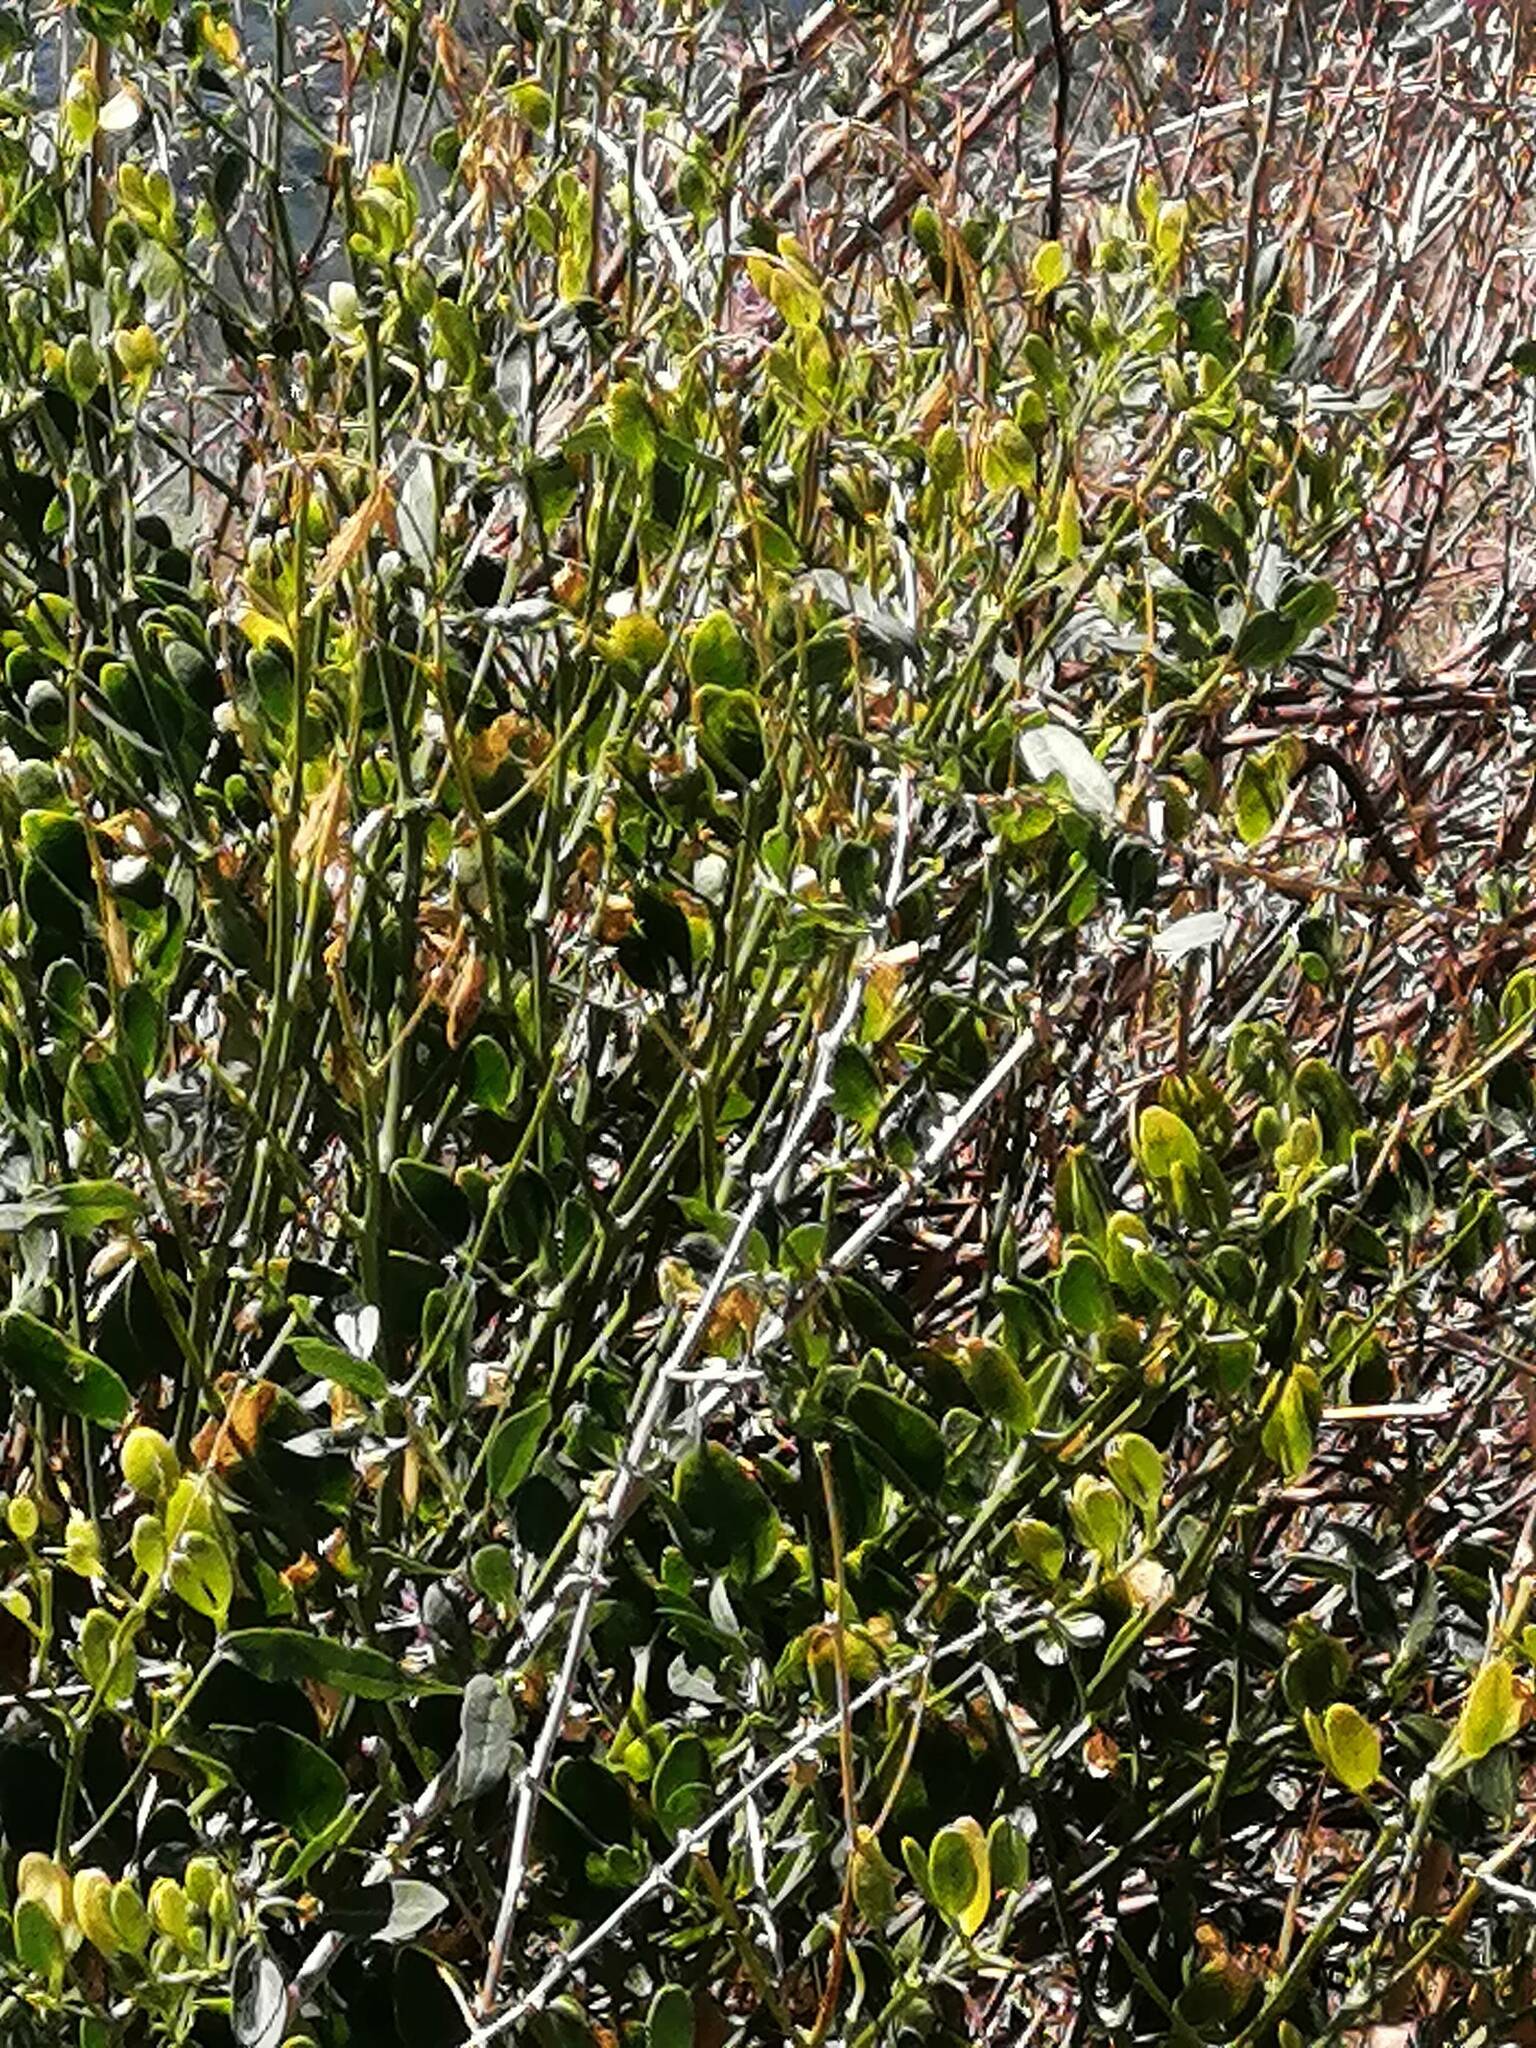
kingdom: Plantae
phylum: Tracheophyta
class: Magnoliopsida
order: Zygophyllales
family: Zygophyllaceae
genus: Zygophyllum
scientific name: Zygophyllum fabago
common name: Syrian beancaper
